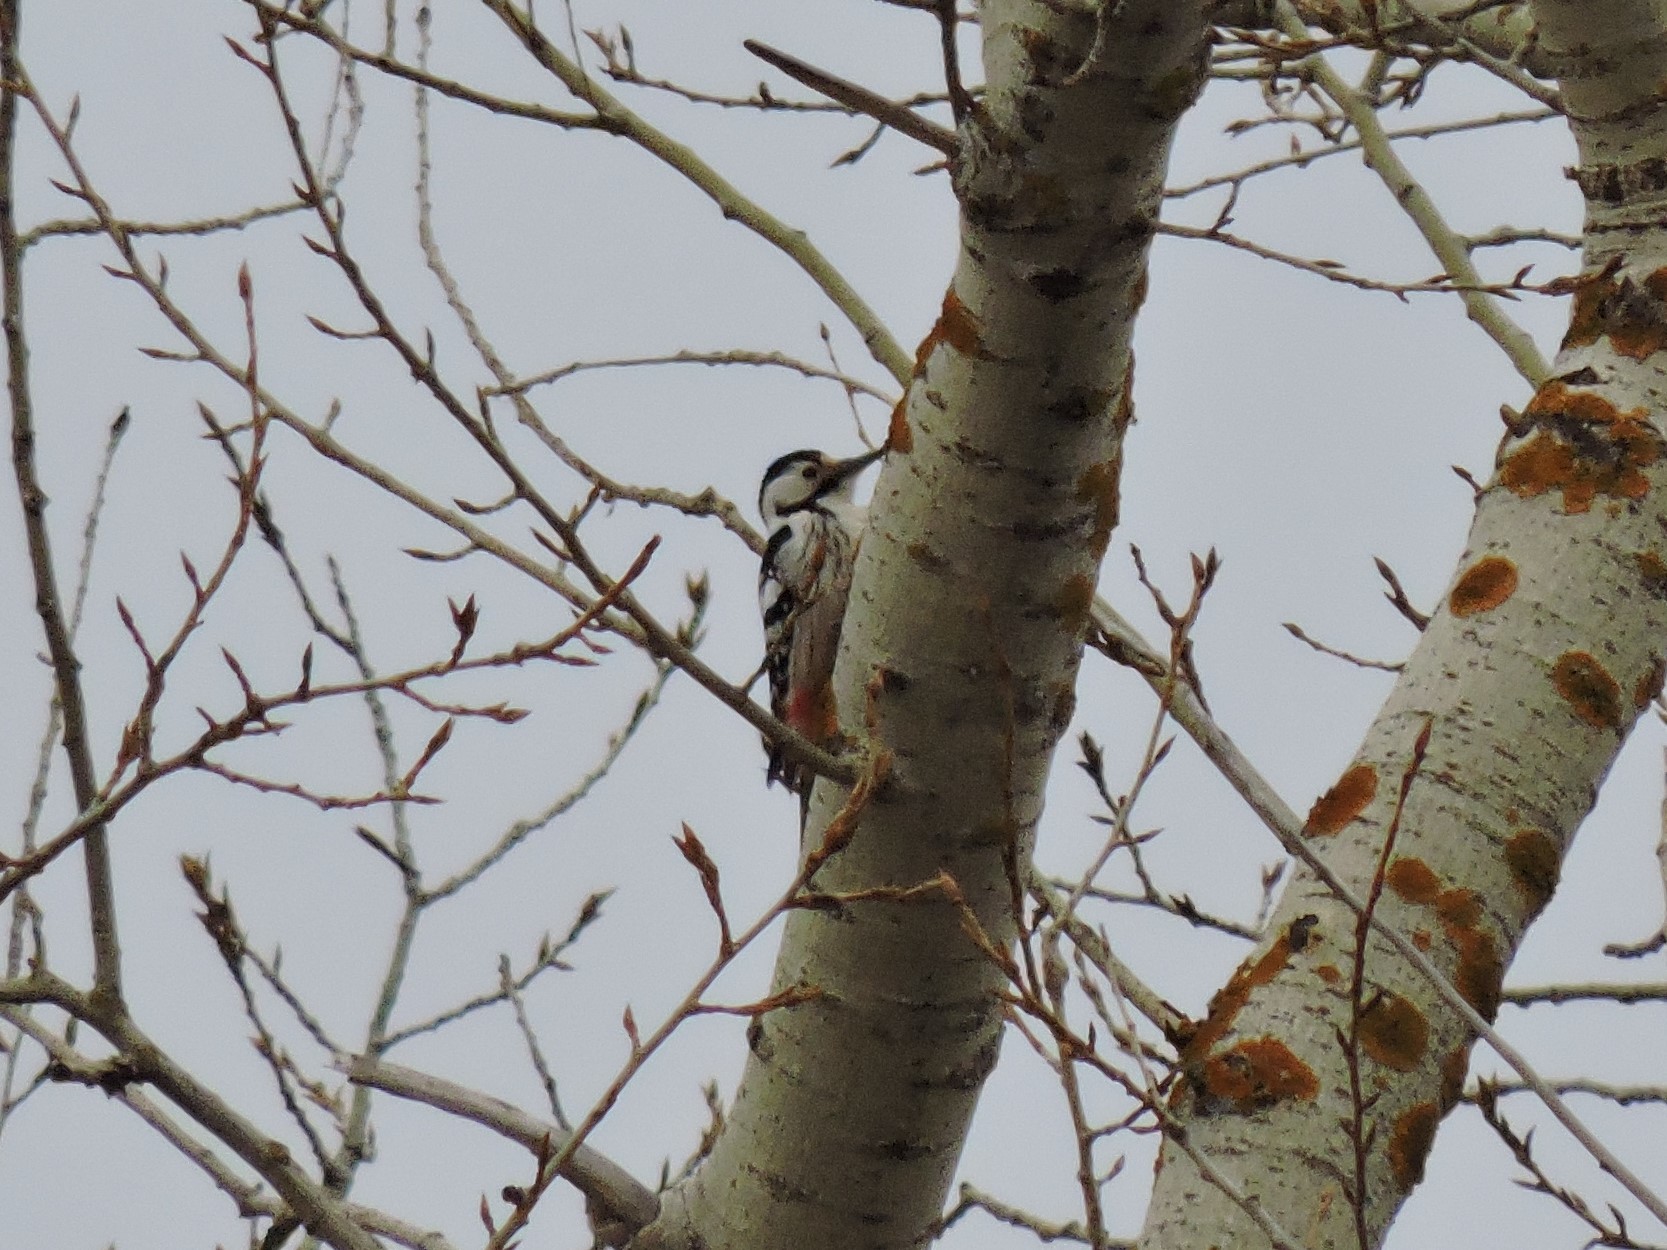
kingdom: Animalia
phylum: Chordata
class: Aves
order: Piciformes
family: Picidae
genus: Dendrocopos
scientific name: Dendrocopos leucotos
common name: White-backed woodpecker
